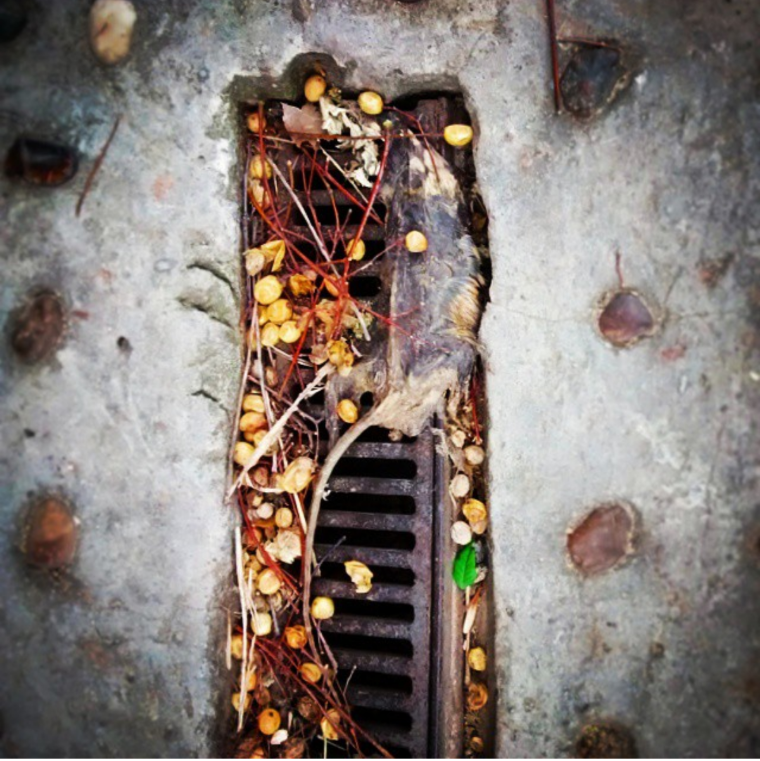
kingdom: Animalia
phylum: Chordata
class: Mammalia
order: Didelphimorphia
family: Didelphidae
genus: Didelphis
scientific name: Didelphis albiventris
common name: White-eared opossum
